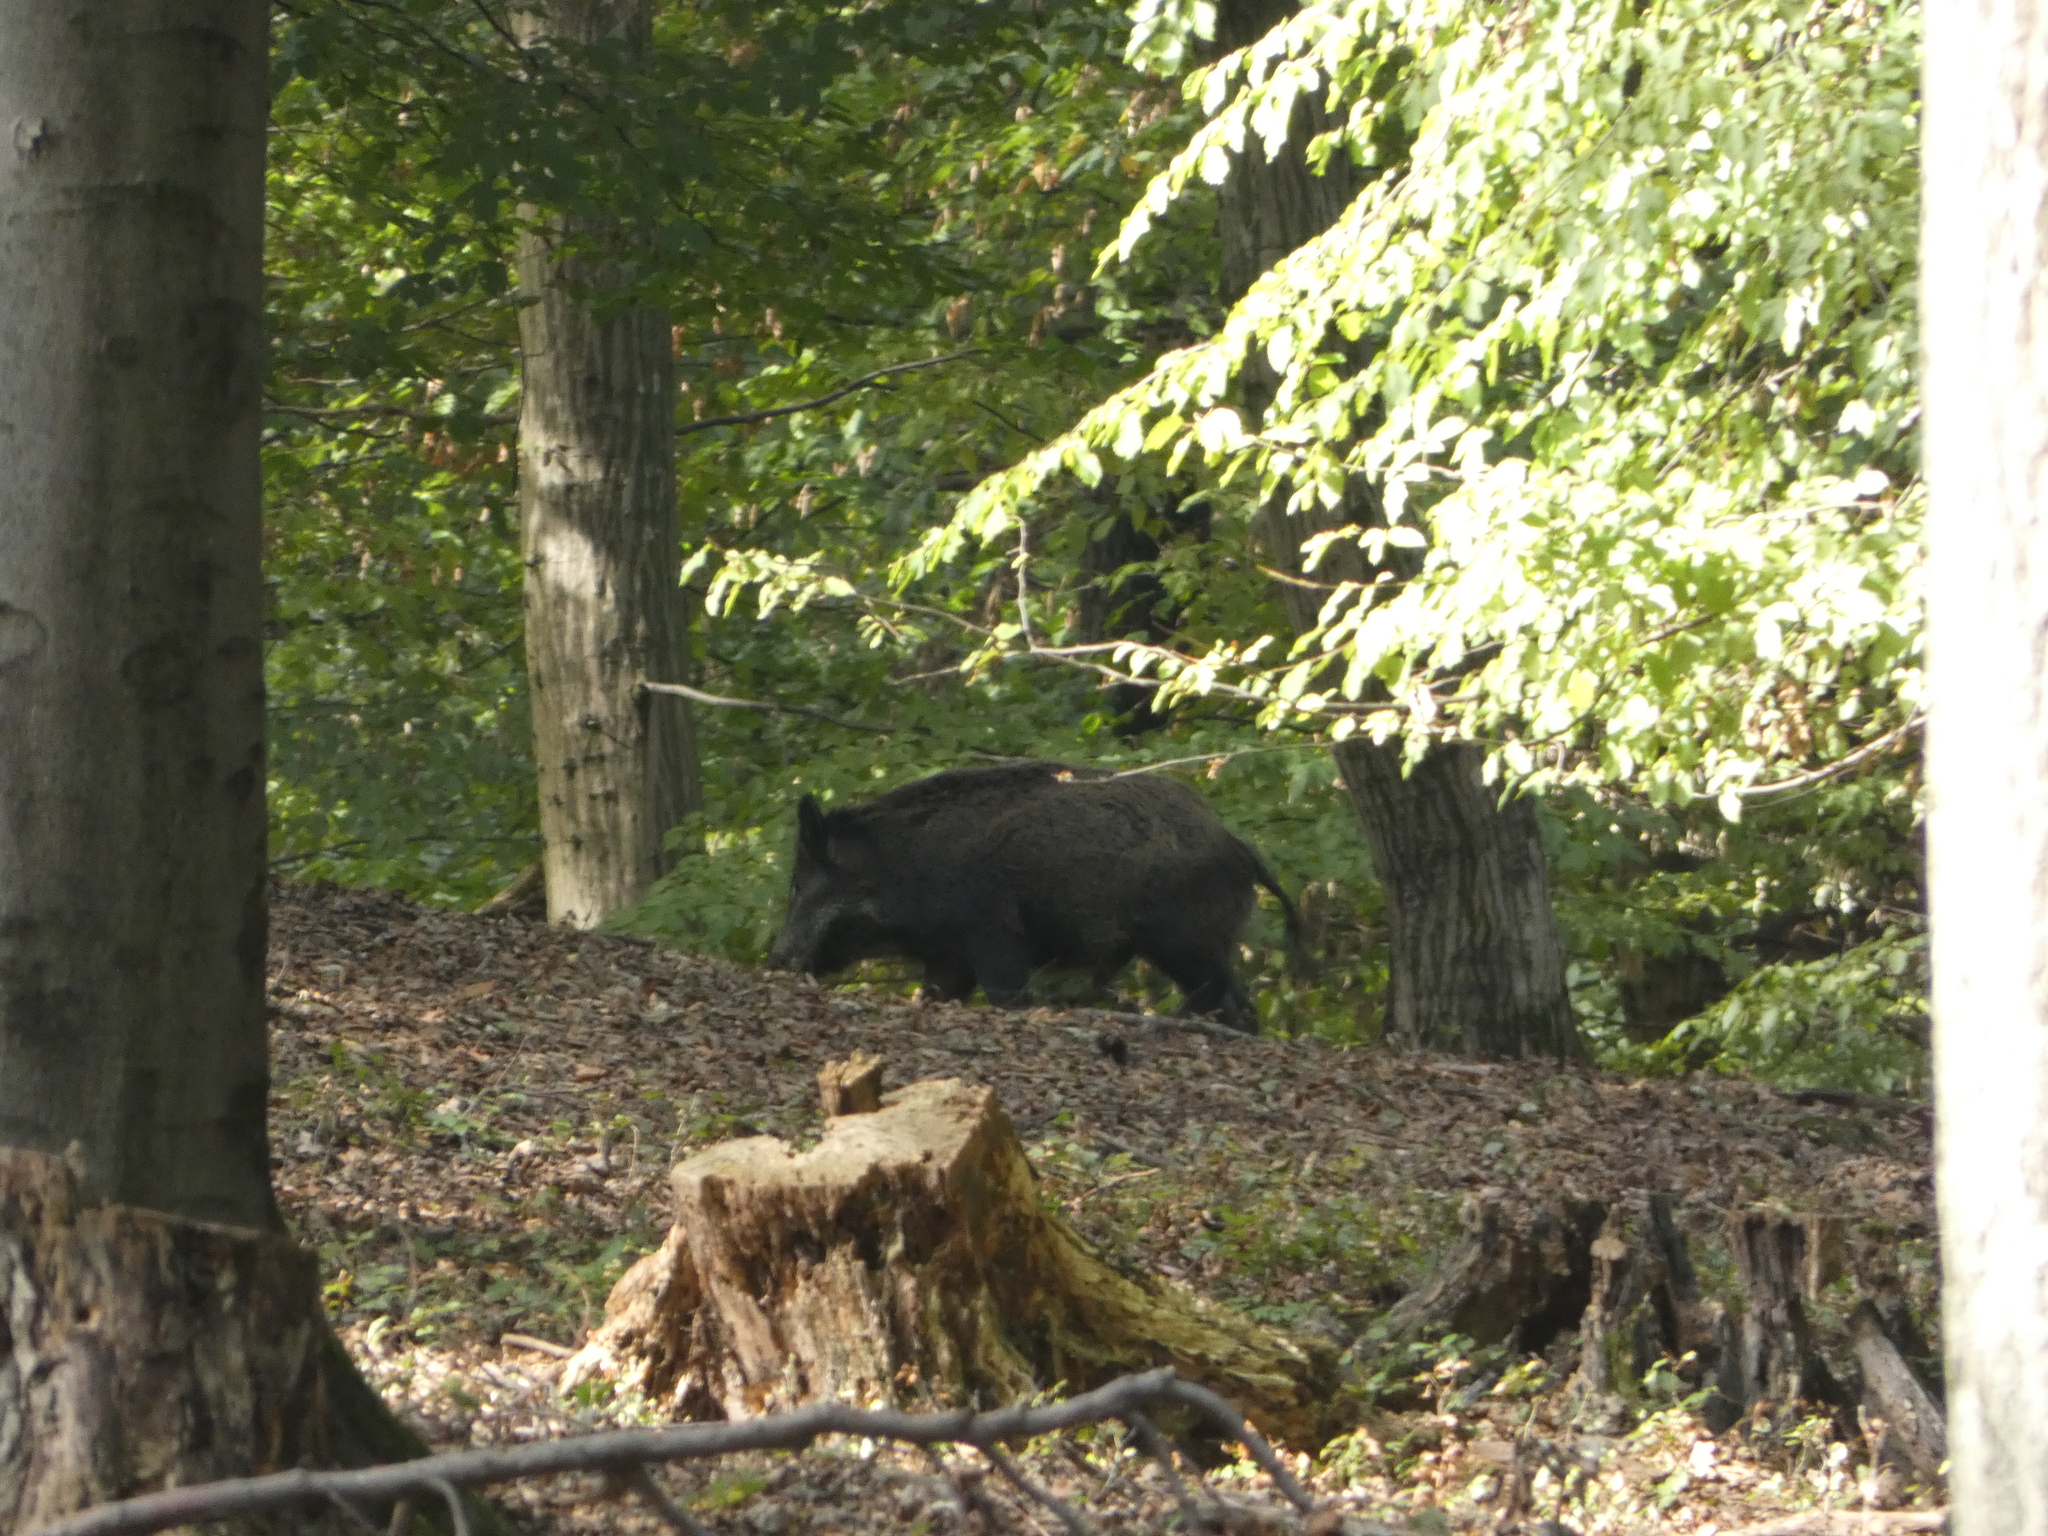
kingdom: Animalia
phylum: Chordata
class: Mammalia
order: Artiodactyla
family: Suidae
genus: Sus
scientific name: Sus scrofa
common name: Wild boar
